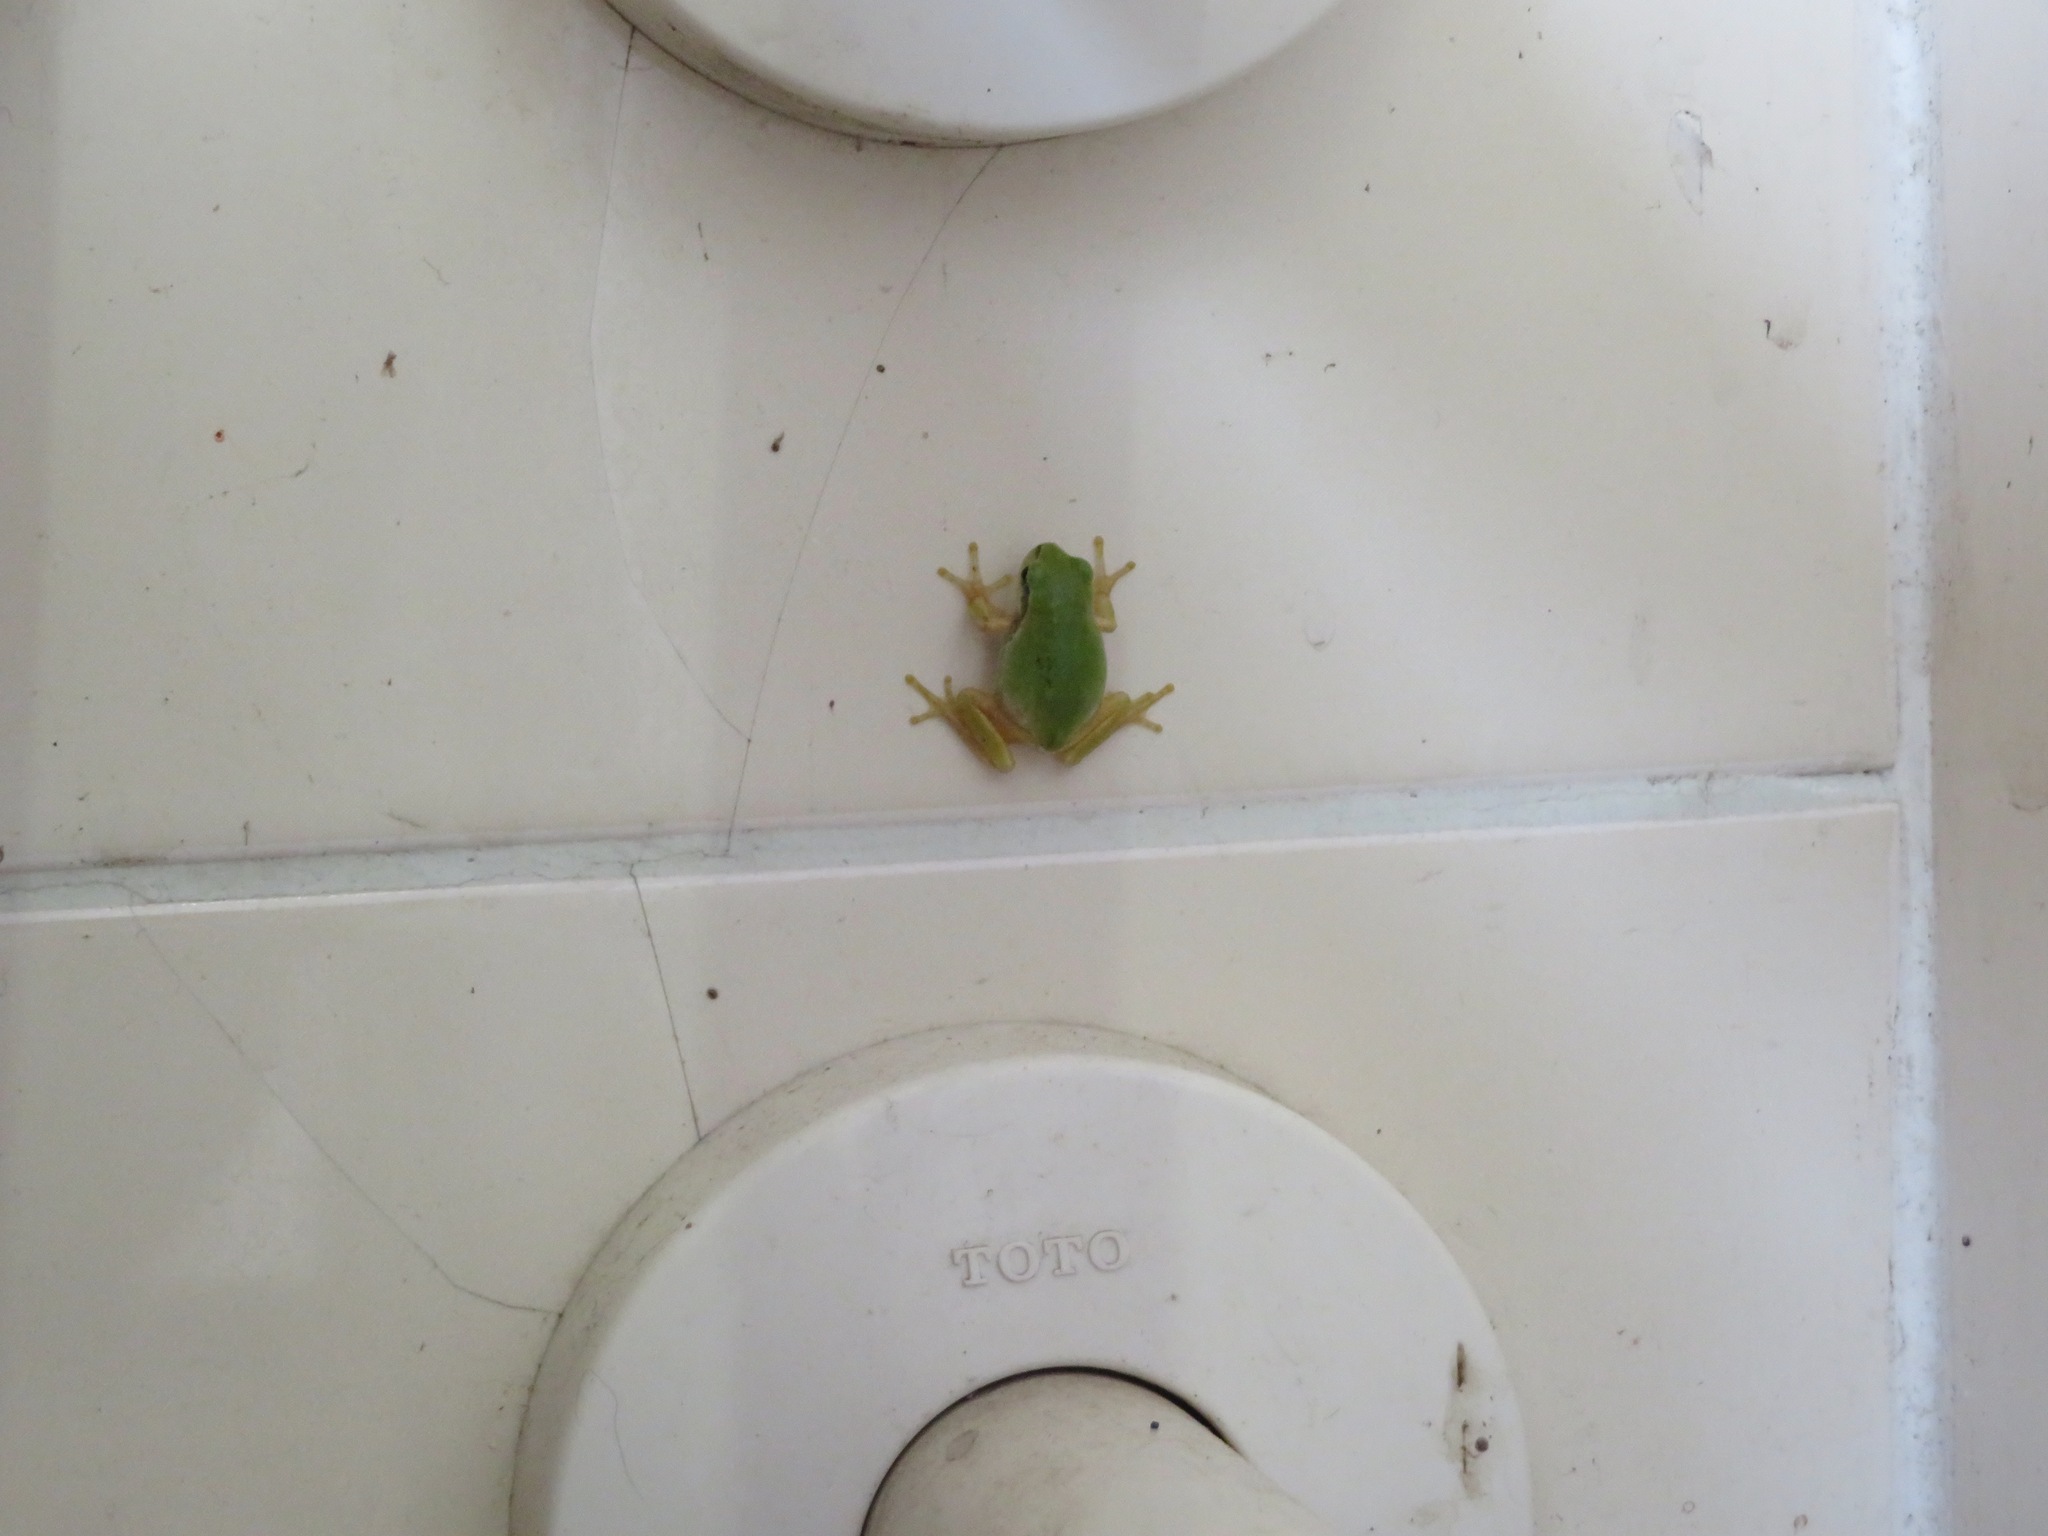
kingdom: Animalia
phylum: Chordata
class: Amphibia
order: Anura
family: Hylidae
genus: Dryophytes
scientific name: Dryophytes japonicus
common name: Japanese treefrog
